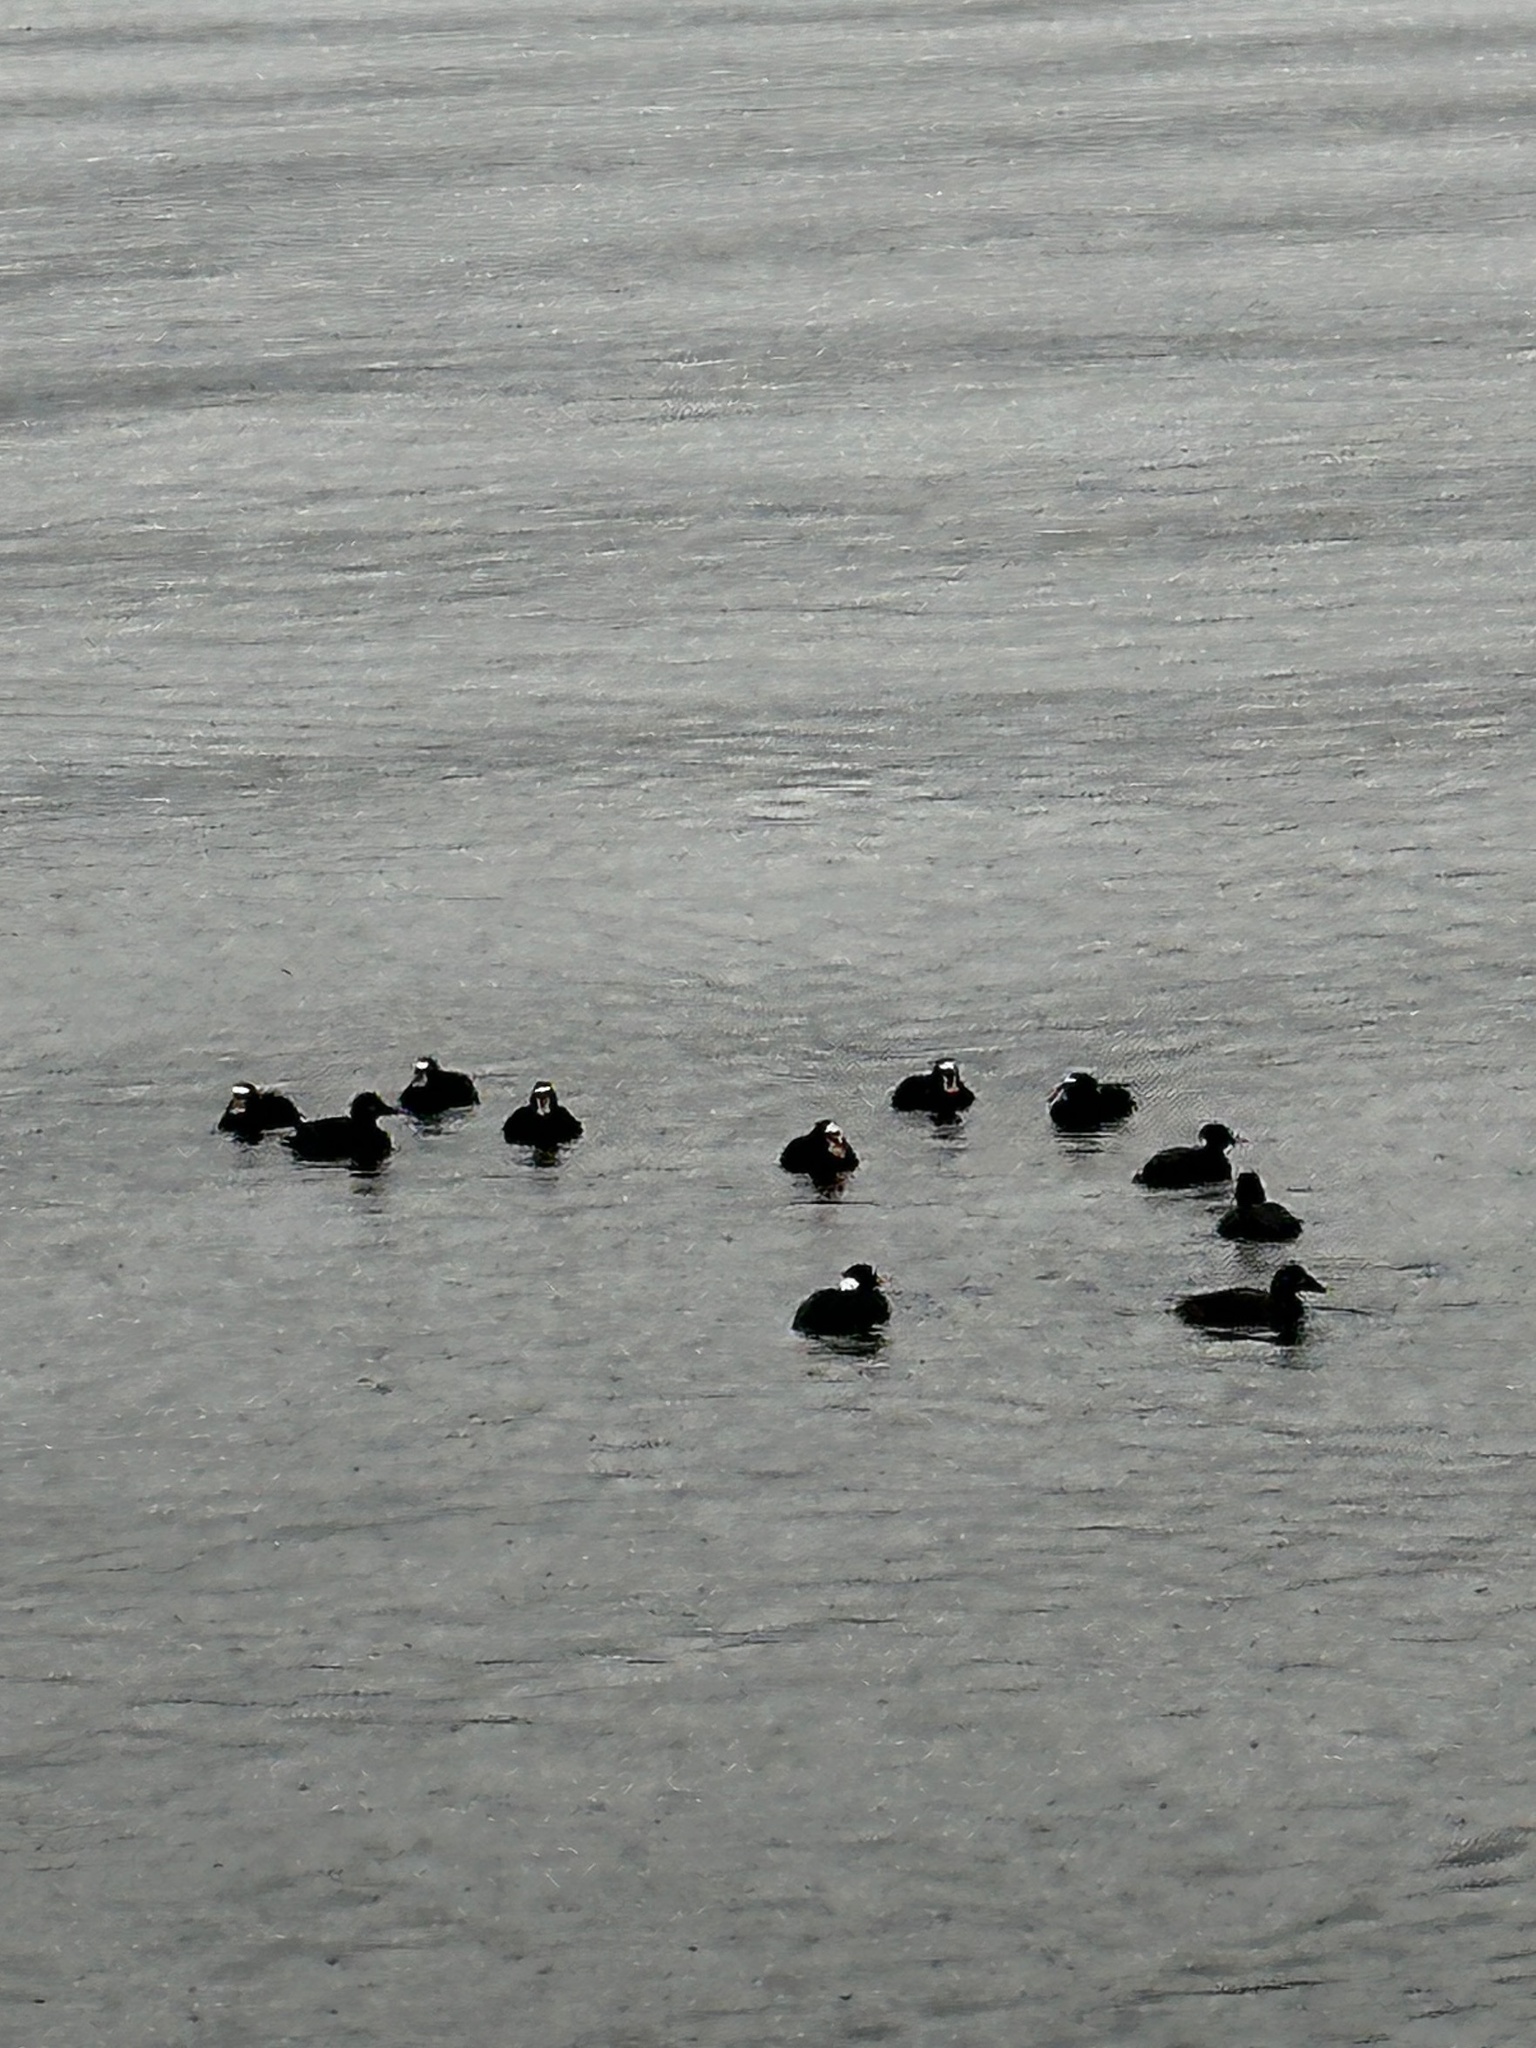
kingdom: Animalia
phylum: Chordata
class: Aves
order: Anseriformes
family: Anatidae
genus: Melanitta
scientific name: Melanitta perspicillata
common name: Surf scoter
